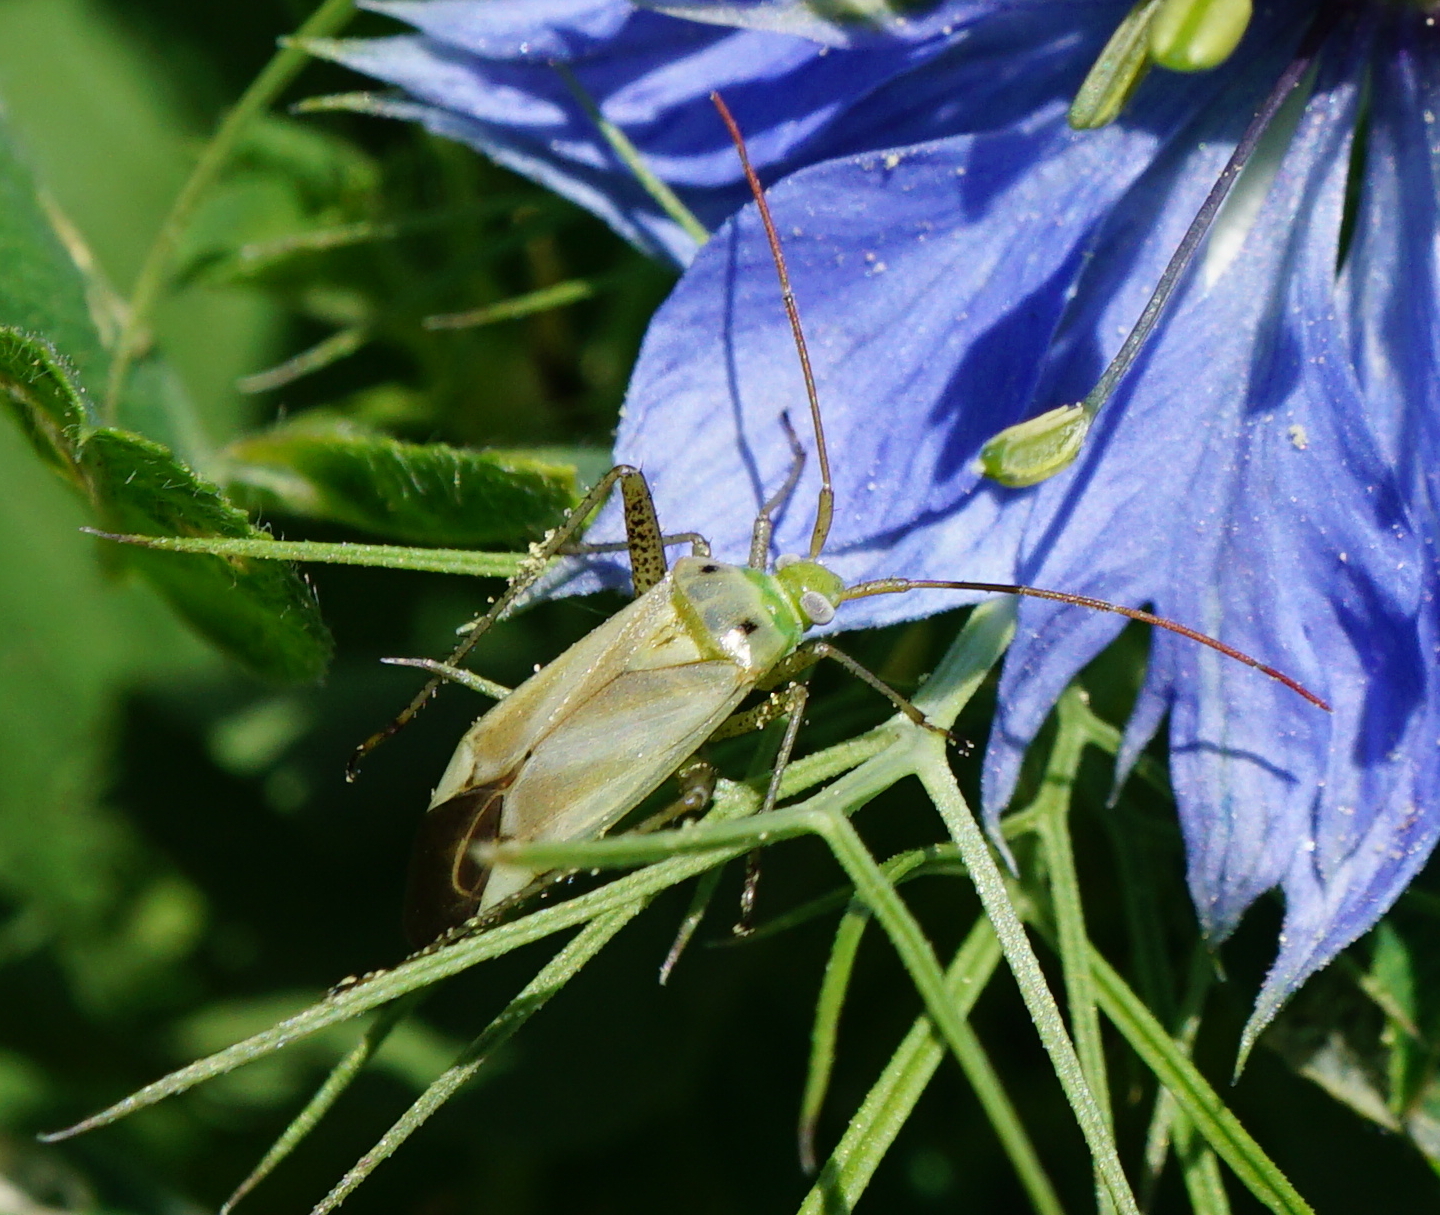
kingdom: Animalia
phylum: Arthropoda
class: Insecta
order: Hemiptera
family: Miridae
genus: Adelphocoris
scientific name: Adelphocoris lineolatus
